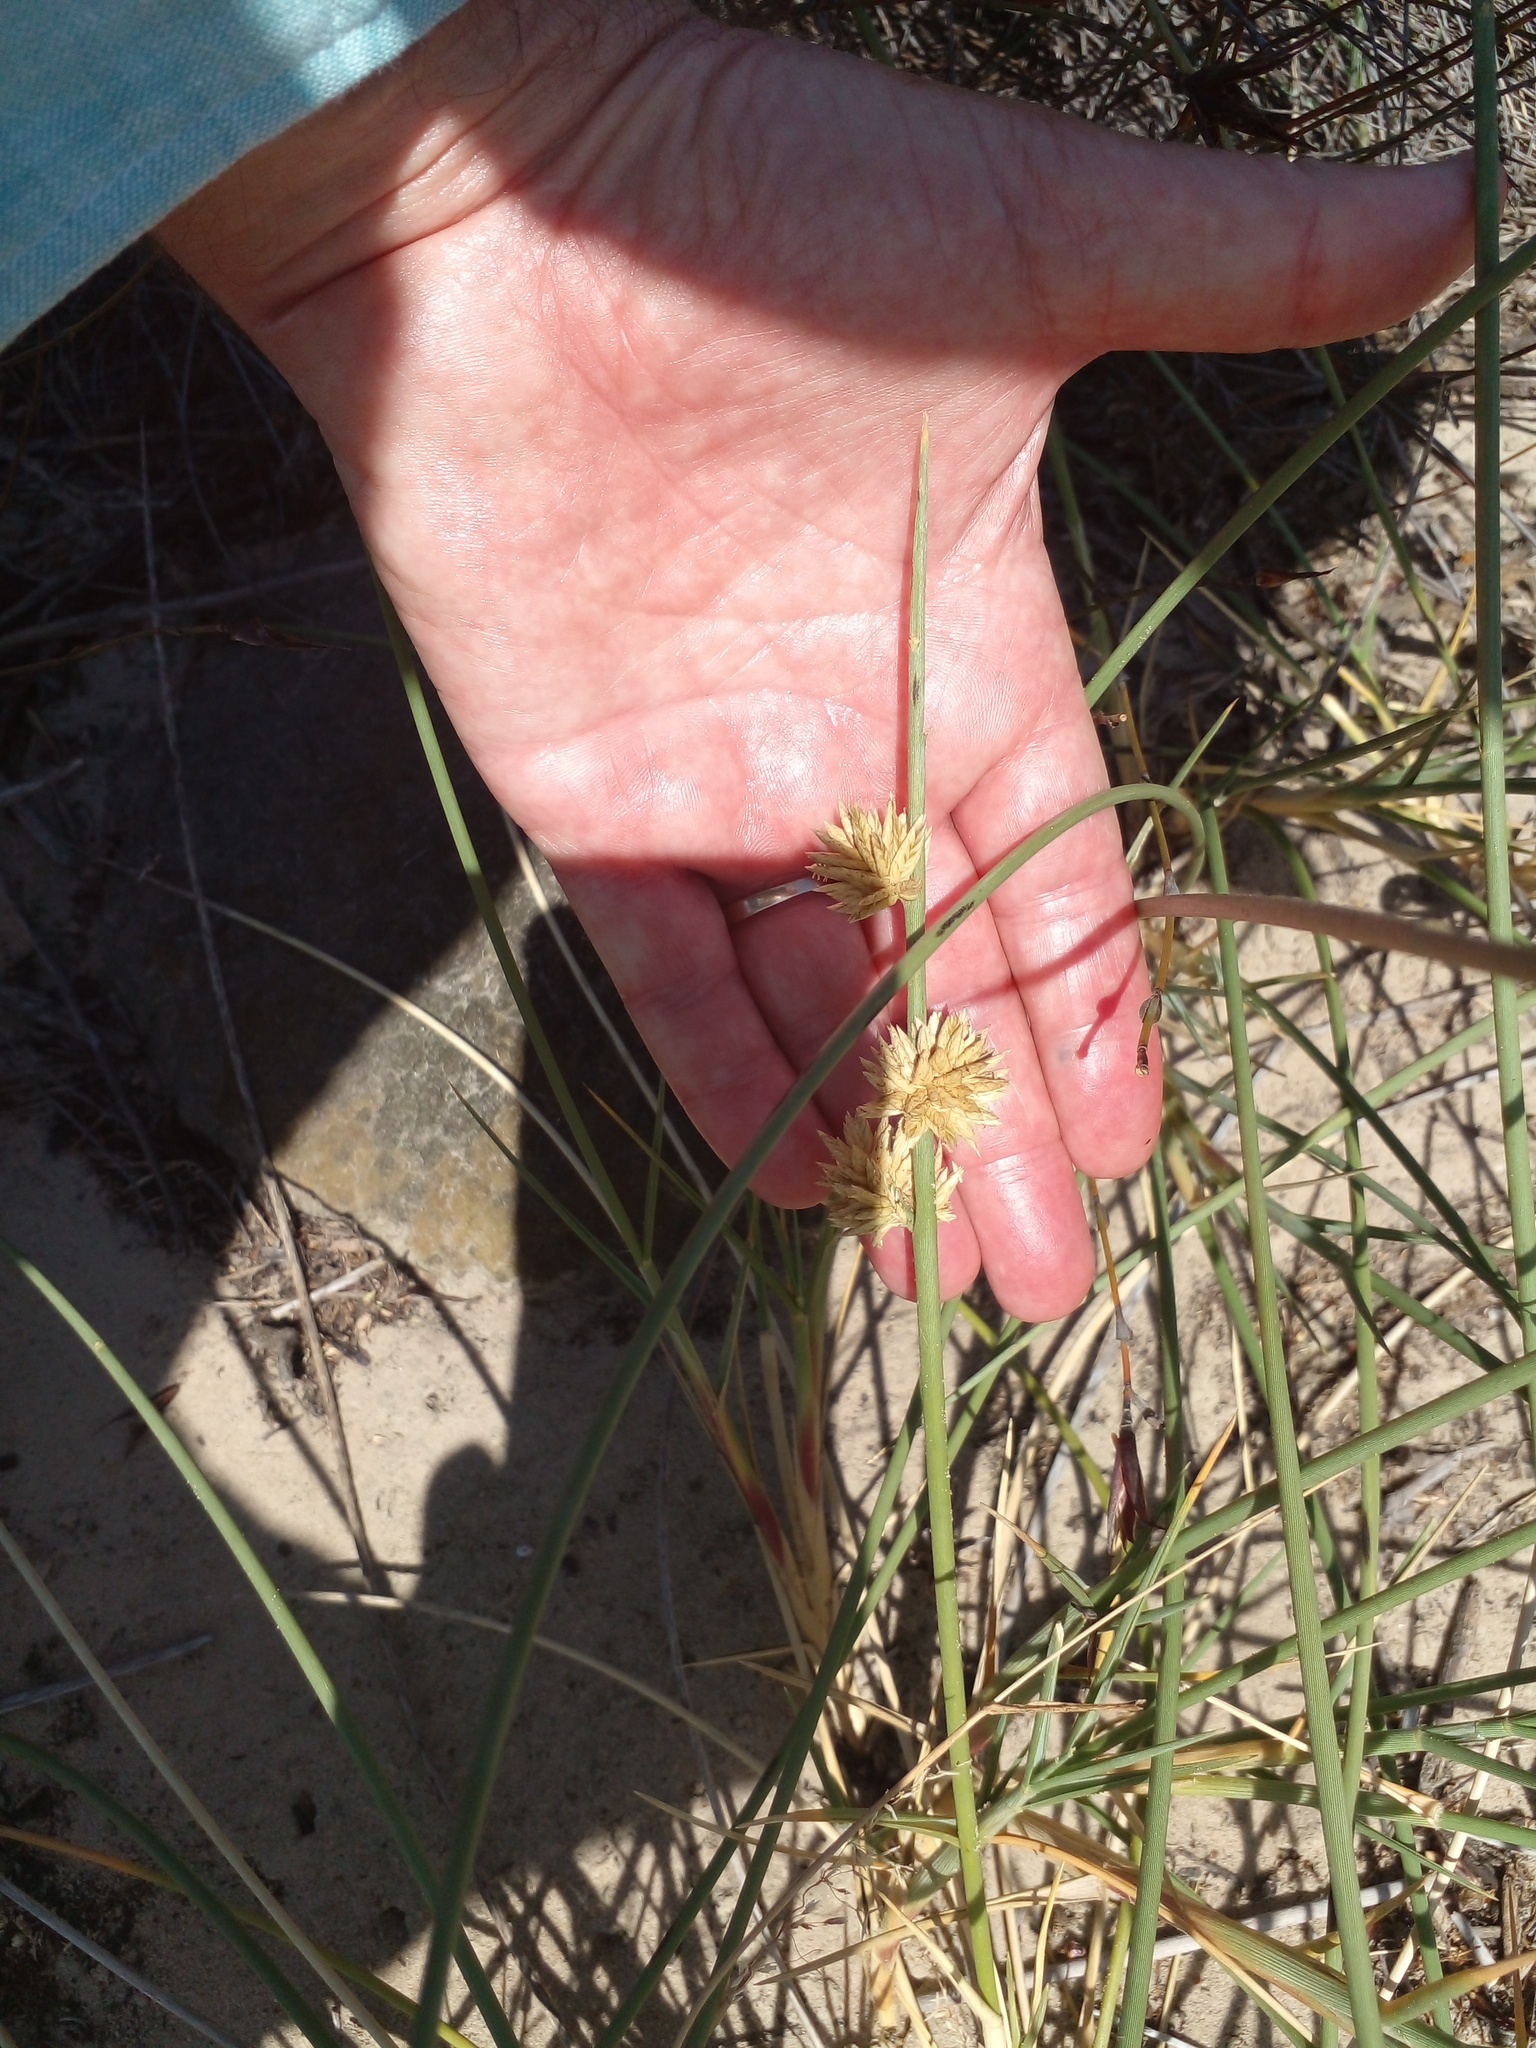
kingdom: Plantae
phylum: Tracheophyta
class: Liliopsida
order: Poales
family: Poaceae
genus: Cladoraphis
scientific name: Cladoraphis cyperoides
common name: Bristly lovegrass
